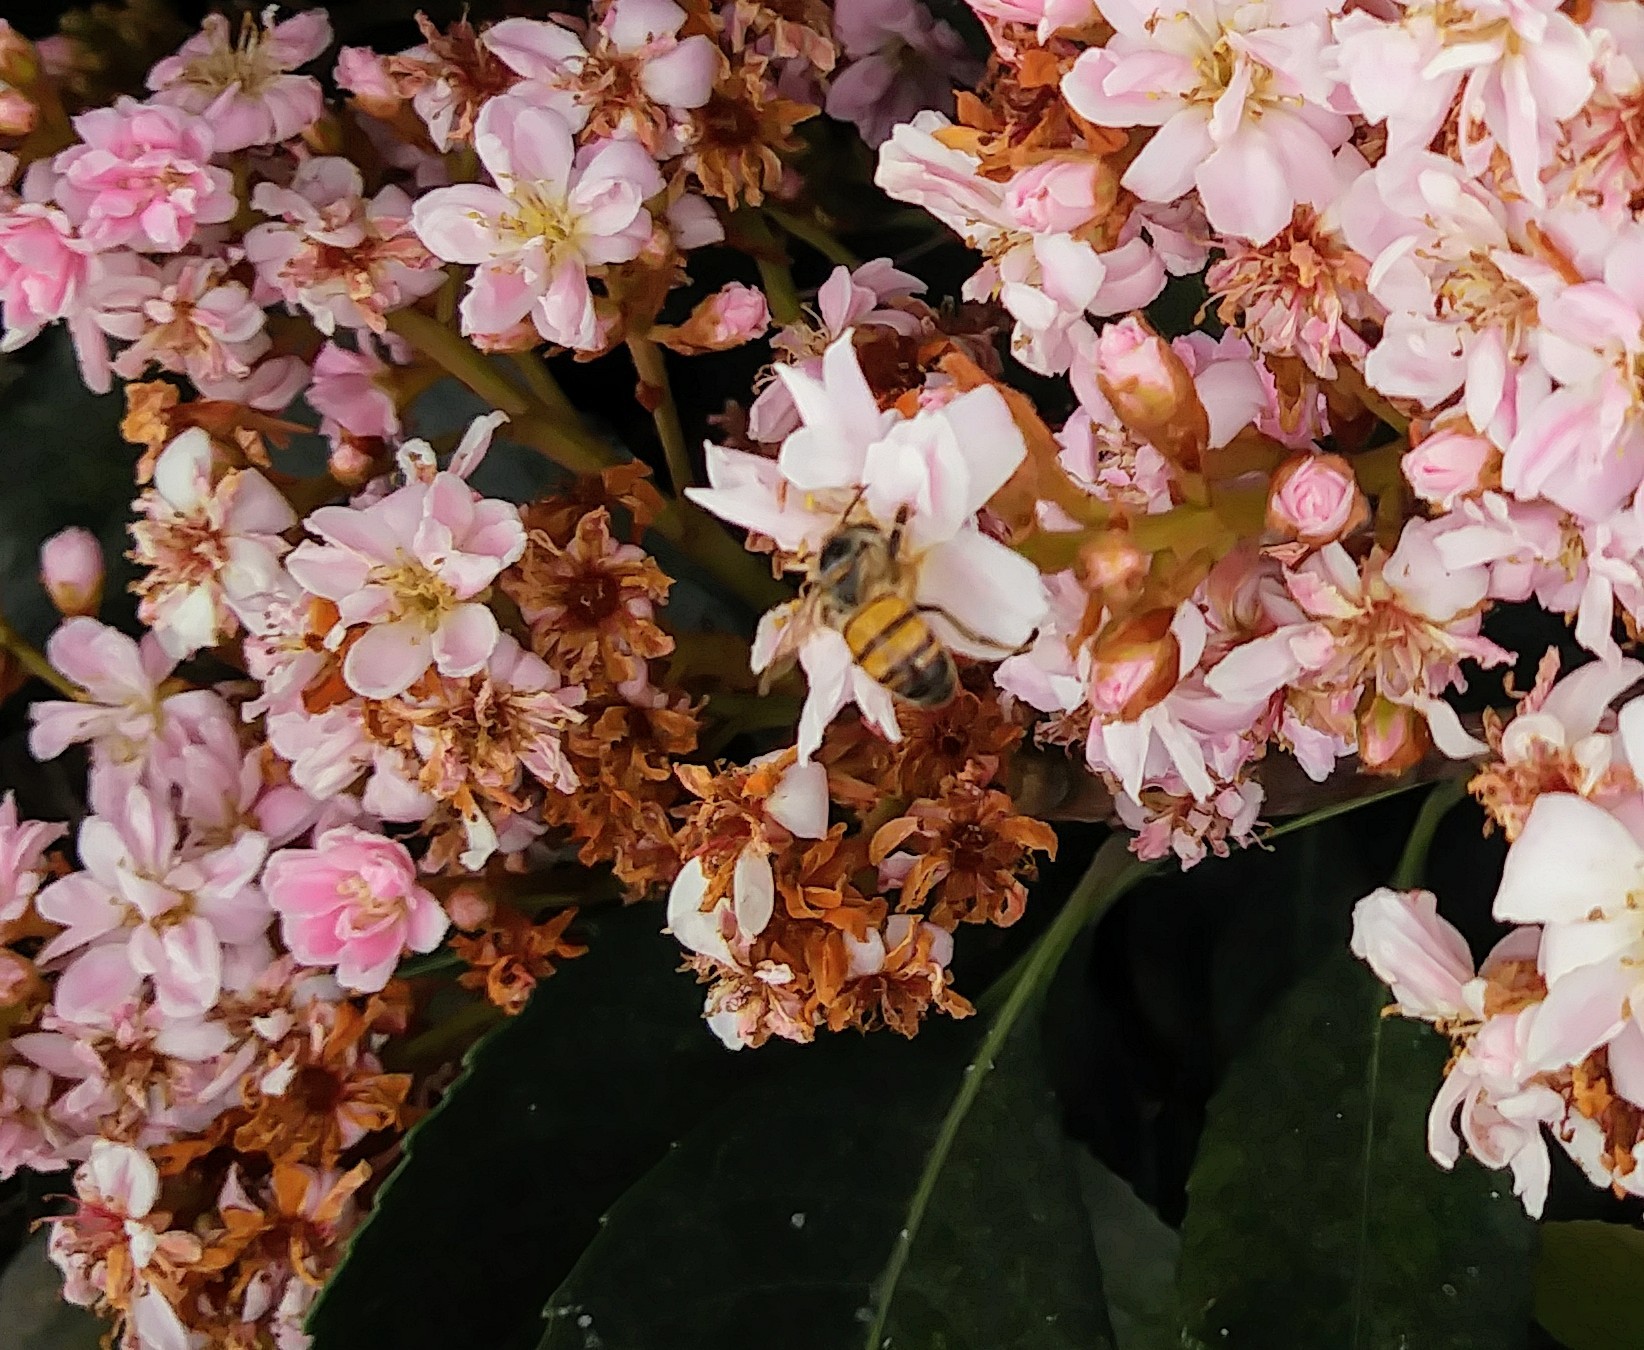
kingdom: Animalia
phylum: Arthropoda
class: Insecta
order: Hymenoptera
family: Apidae
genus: Apis
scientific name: Apis mellifera
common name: Honey bee
